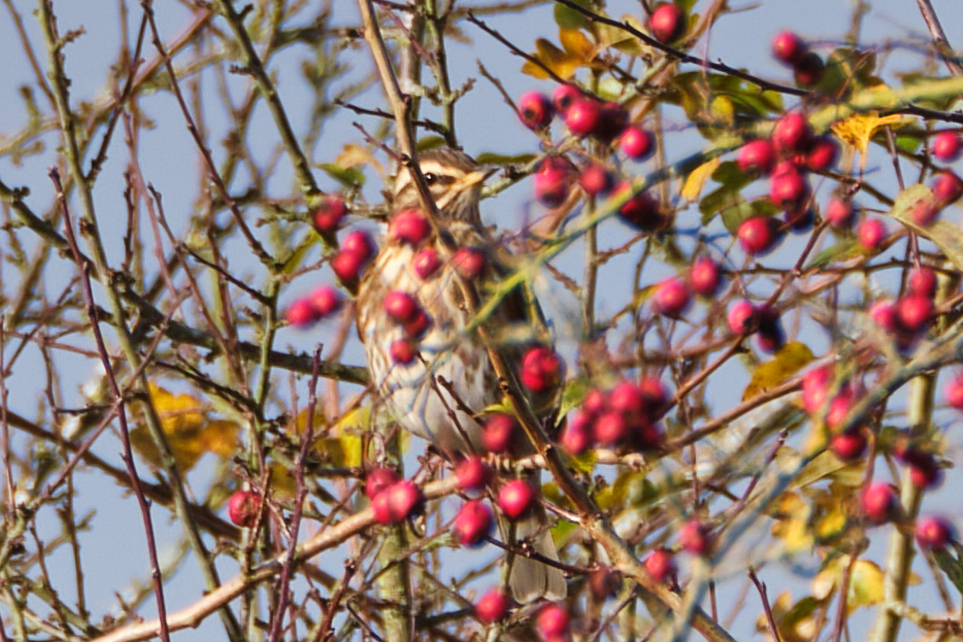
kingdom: Animalia
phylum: Chordata
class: Aves
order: Passeriformes
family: Turdidae
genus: Turdus
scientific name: Turdus iliacus
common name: Redwing
